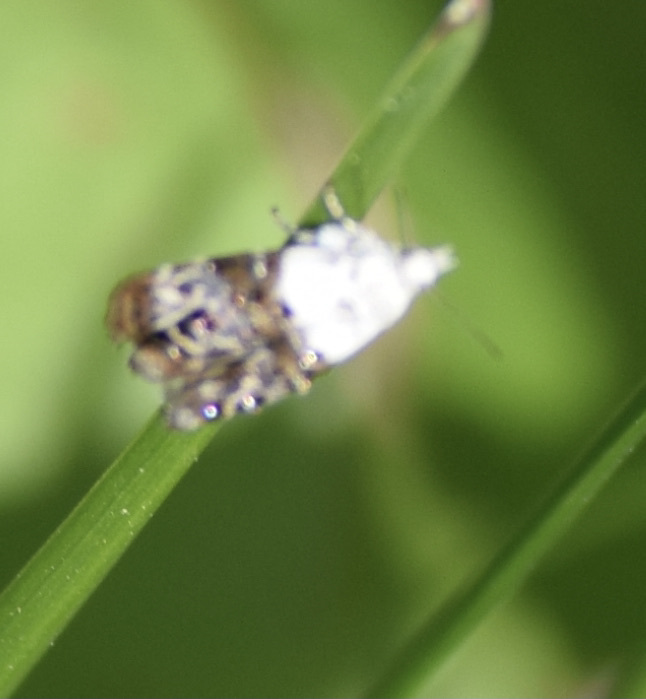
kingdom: Animalia
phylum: Arthropoda
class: Insecta
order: Lepidoptera
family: Choreutidae
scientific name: Choreutidae
